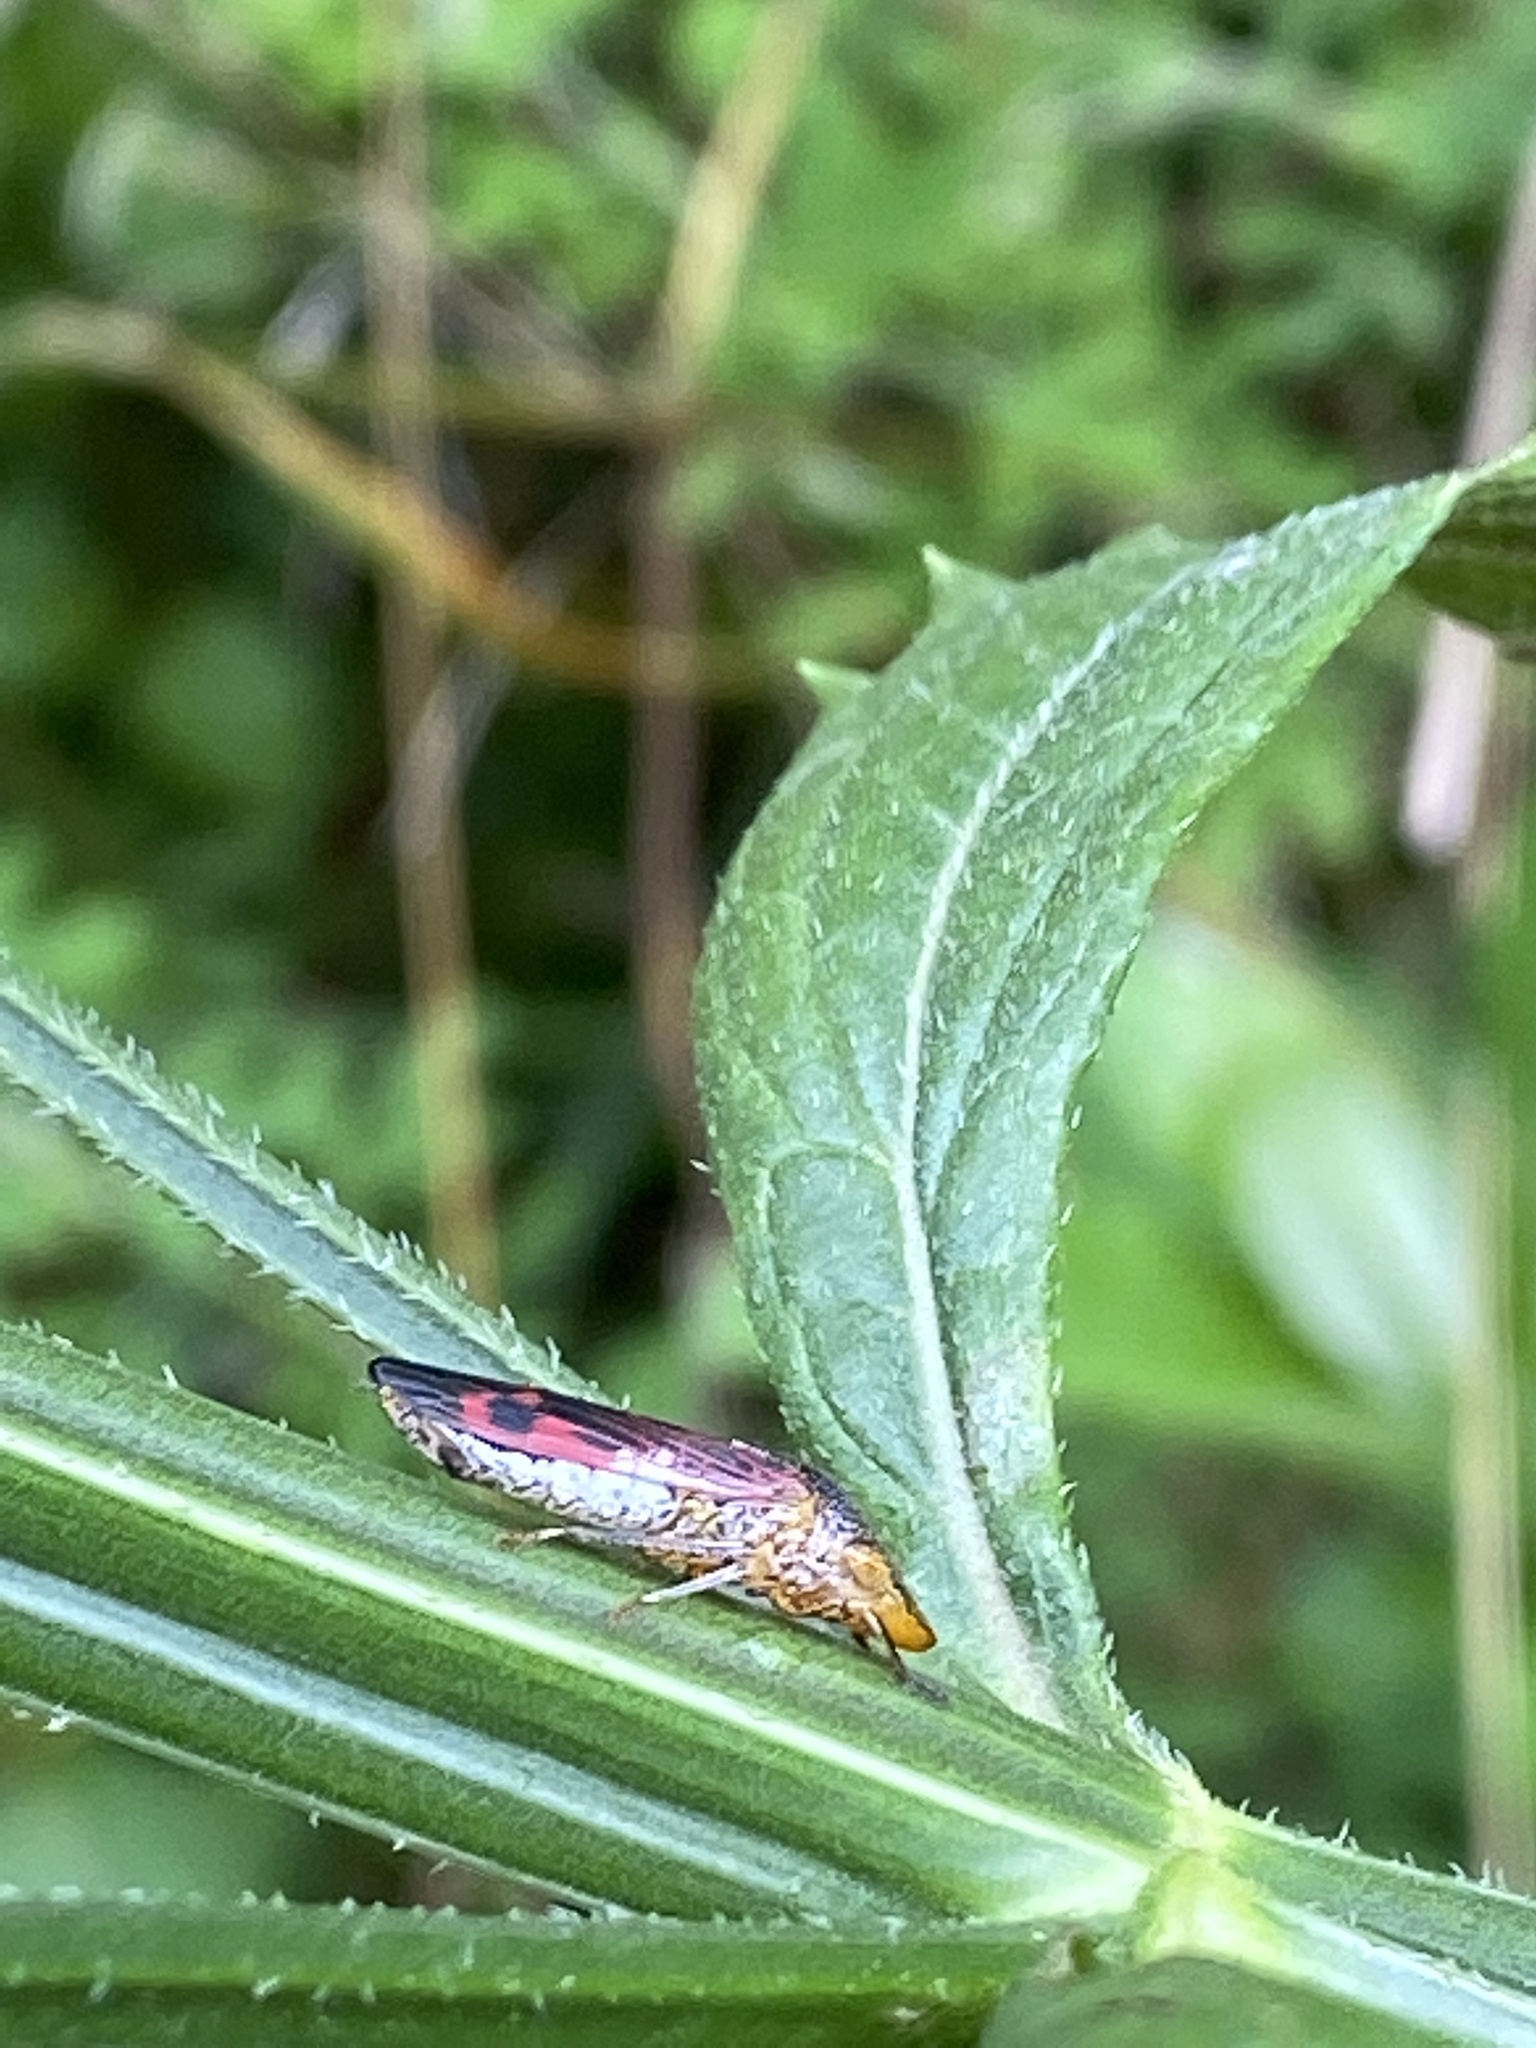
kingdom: Animalia
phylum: Arthropoda
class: Insecta
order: Hemiptera
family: Cicadellidae
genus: Homalodisca
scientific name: Homalodisca vitripennis
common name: Glassy-winged sharpshooter
